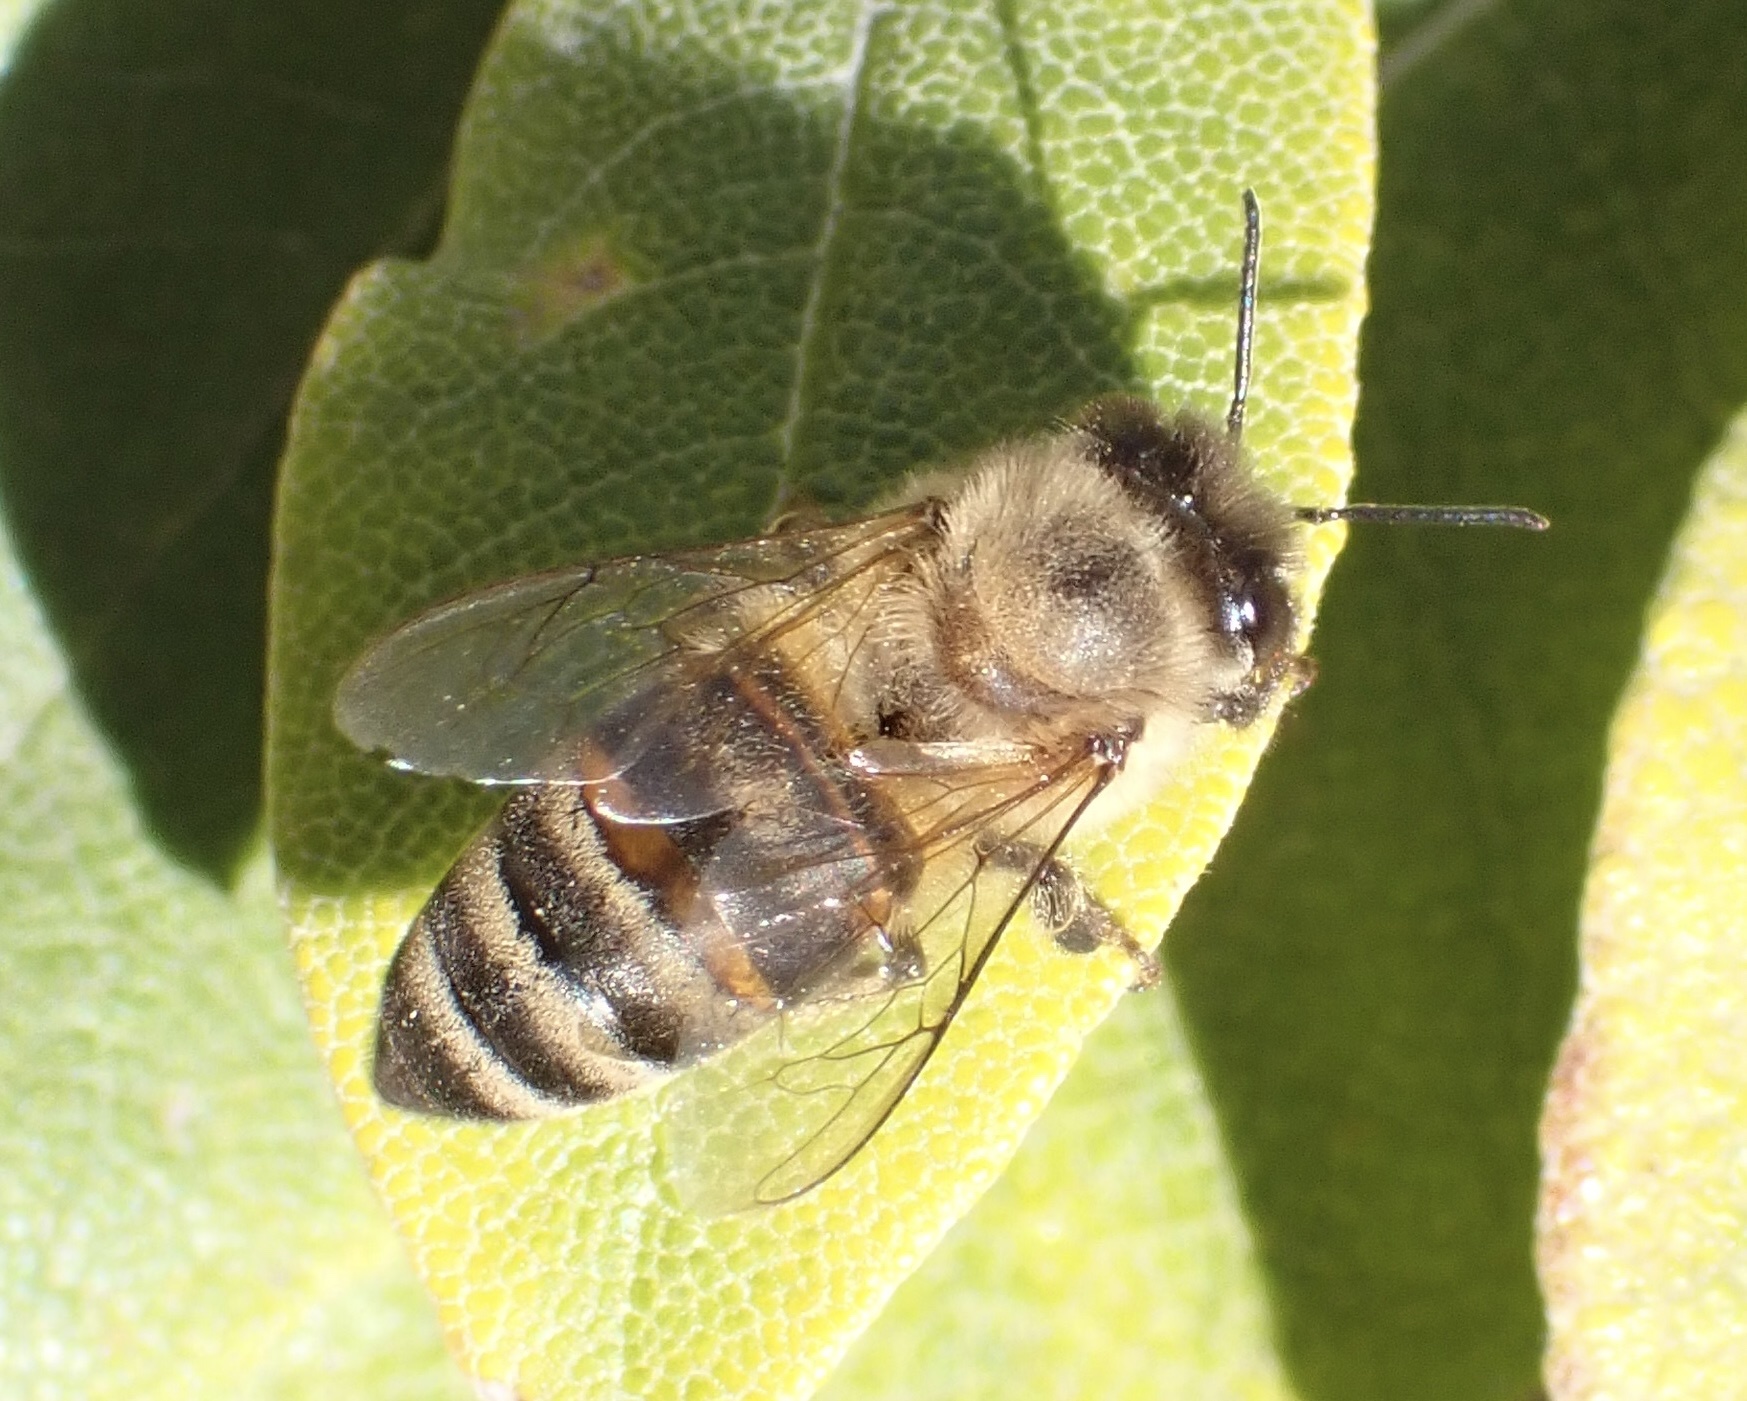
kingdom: Animalia
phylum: Arthropoda
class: Insecta
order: Hymenoptera
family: Apidae
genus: Apis
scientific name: Apis mellifera
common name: Honey bee
